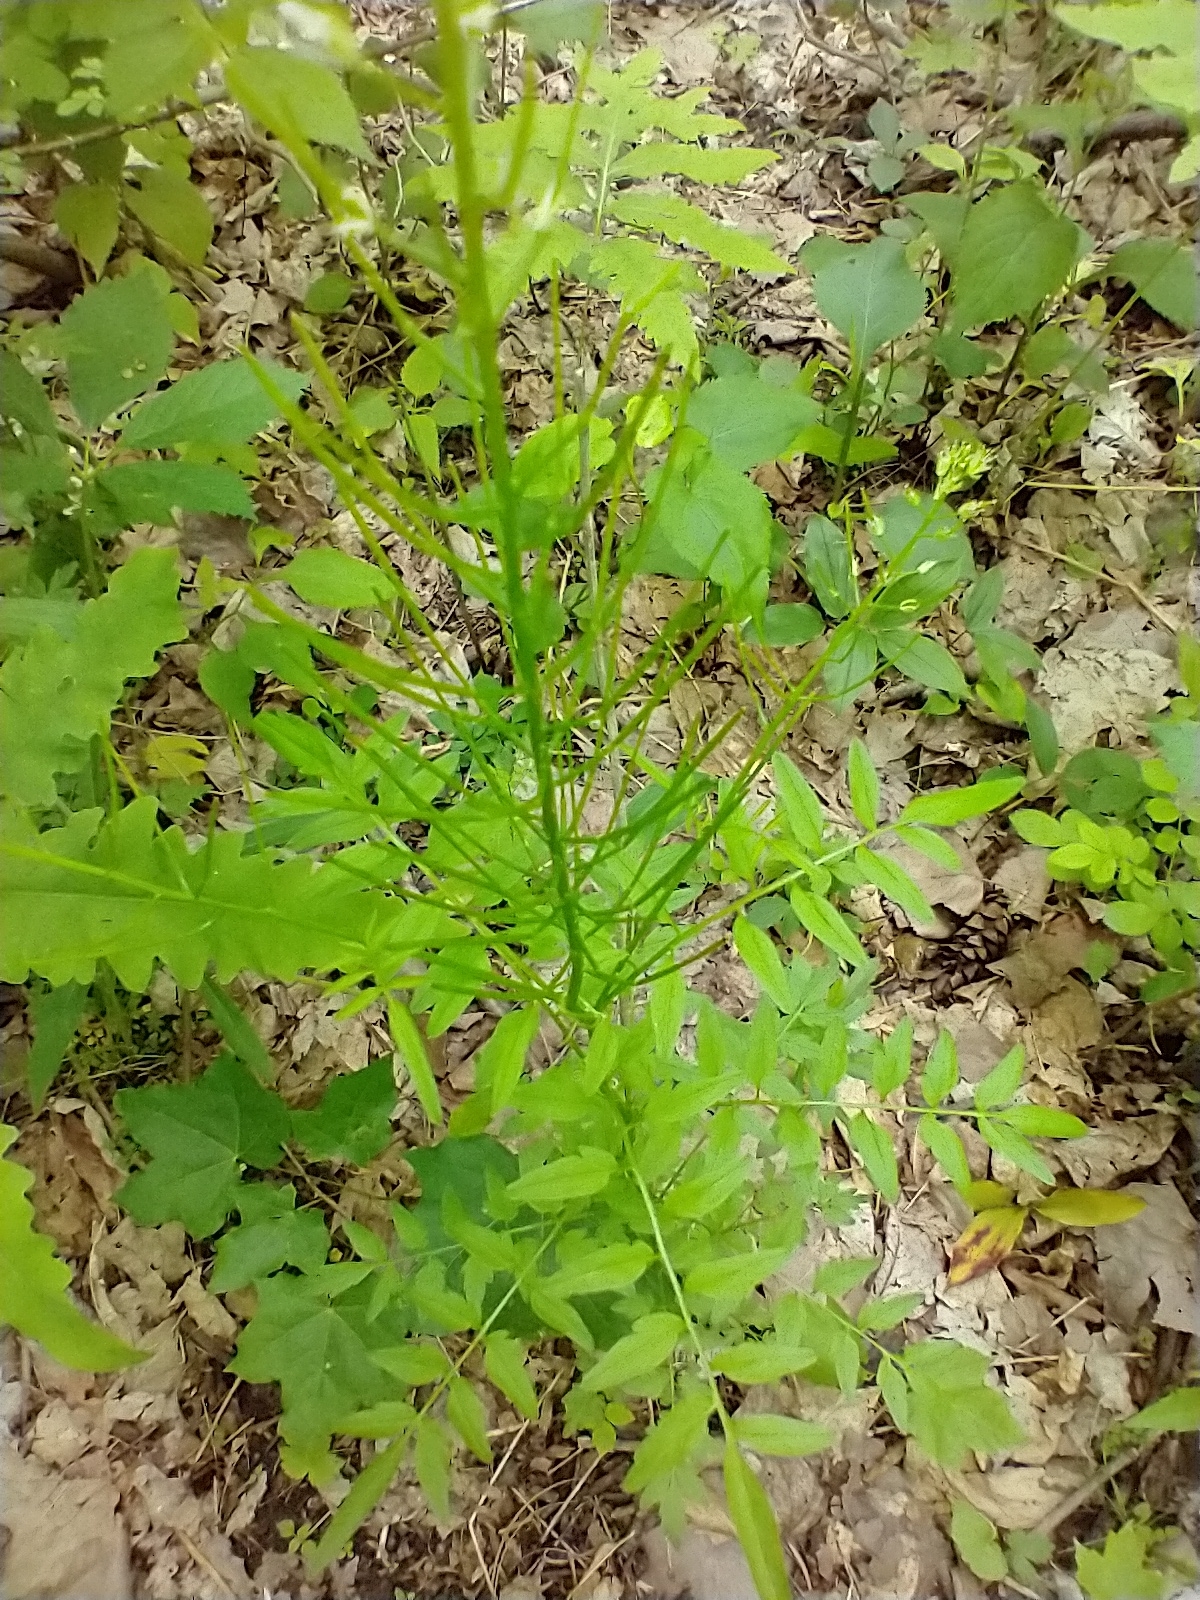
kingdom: Plantae
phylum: Tracheophyta
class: Magnoliopsida
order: Brassicales
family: Brassicaceae
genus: Cardamine
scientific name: Cardamine impatiens
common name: Narrow-leaved bitter-cress
